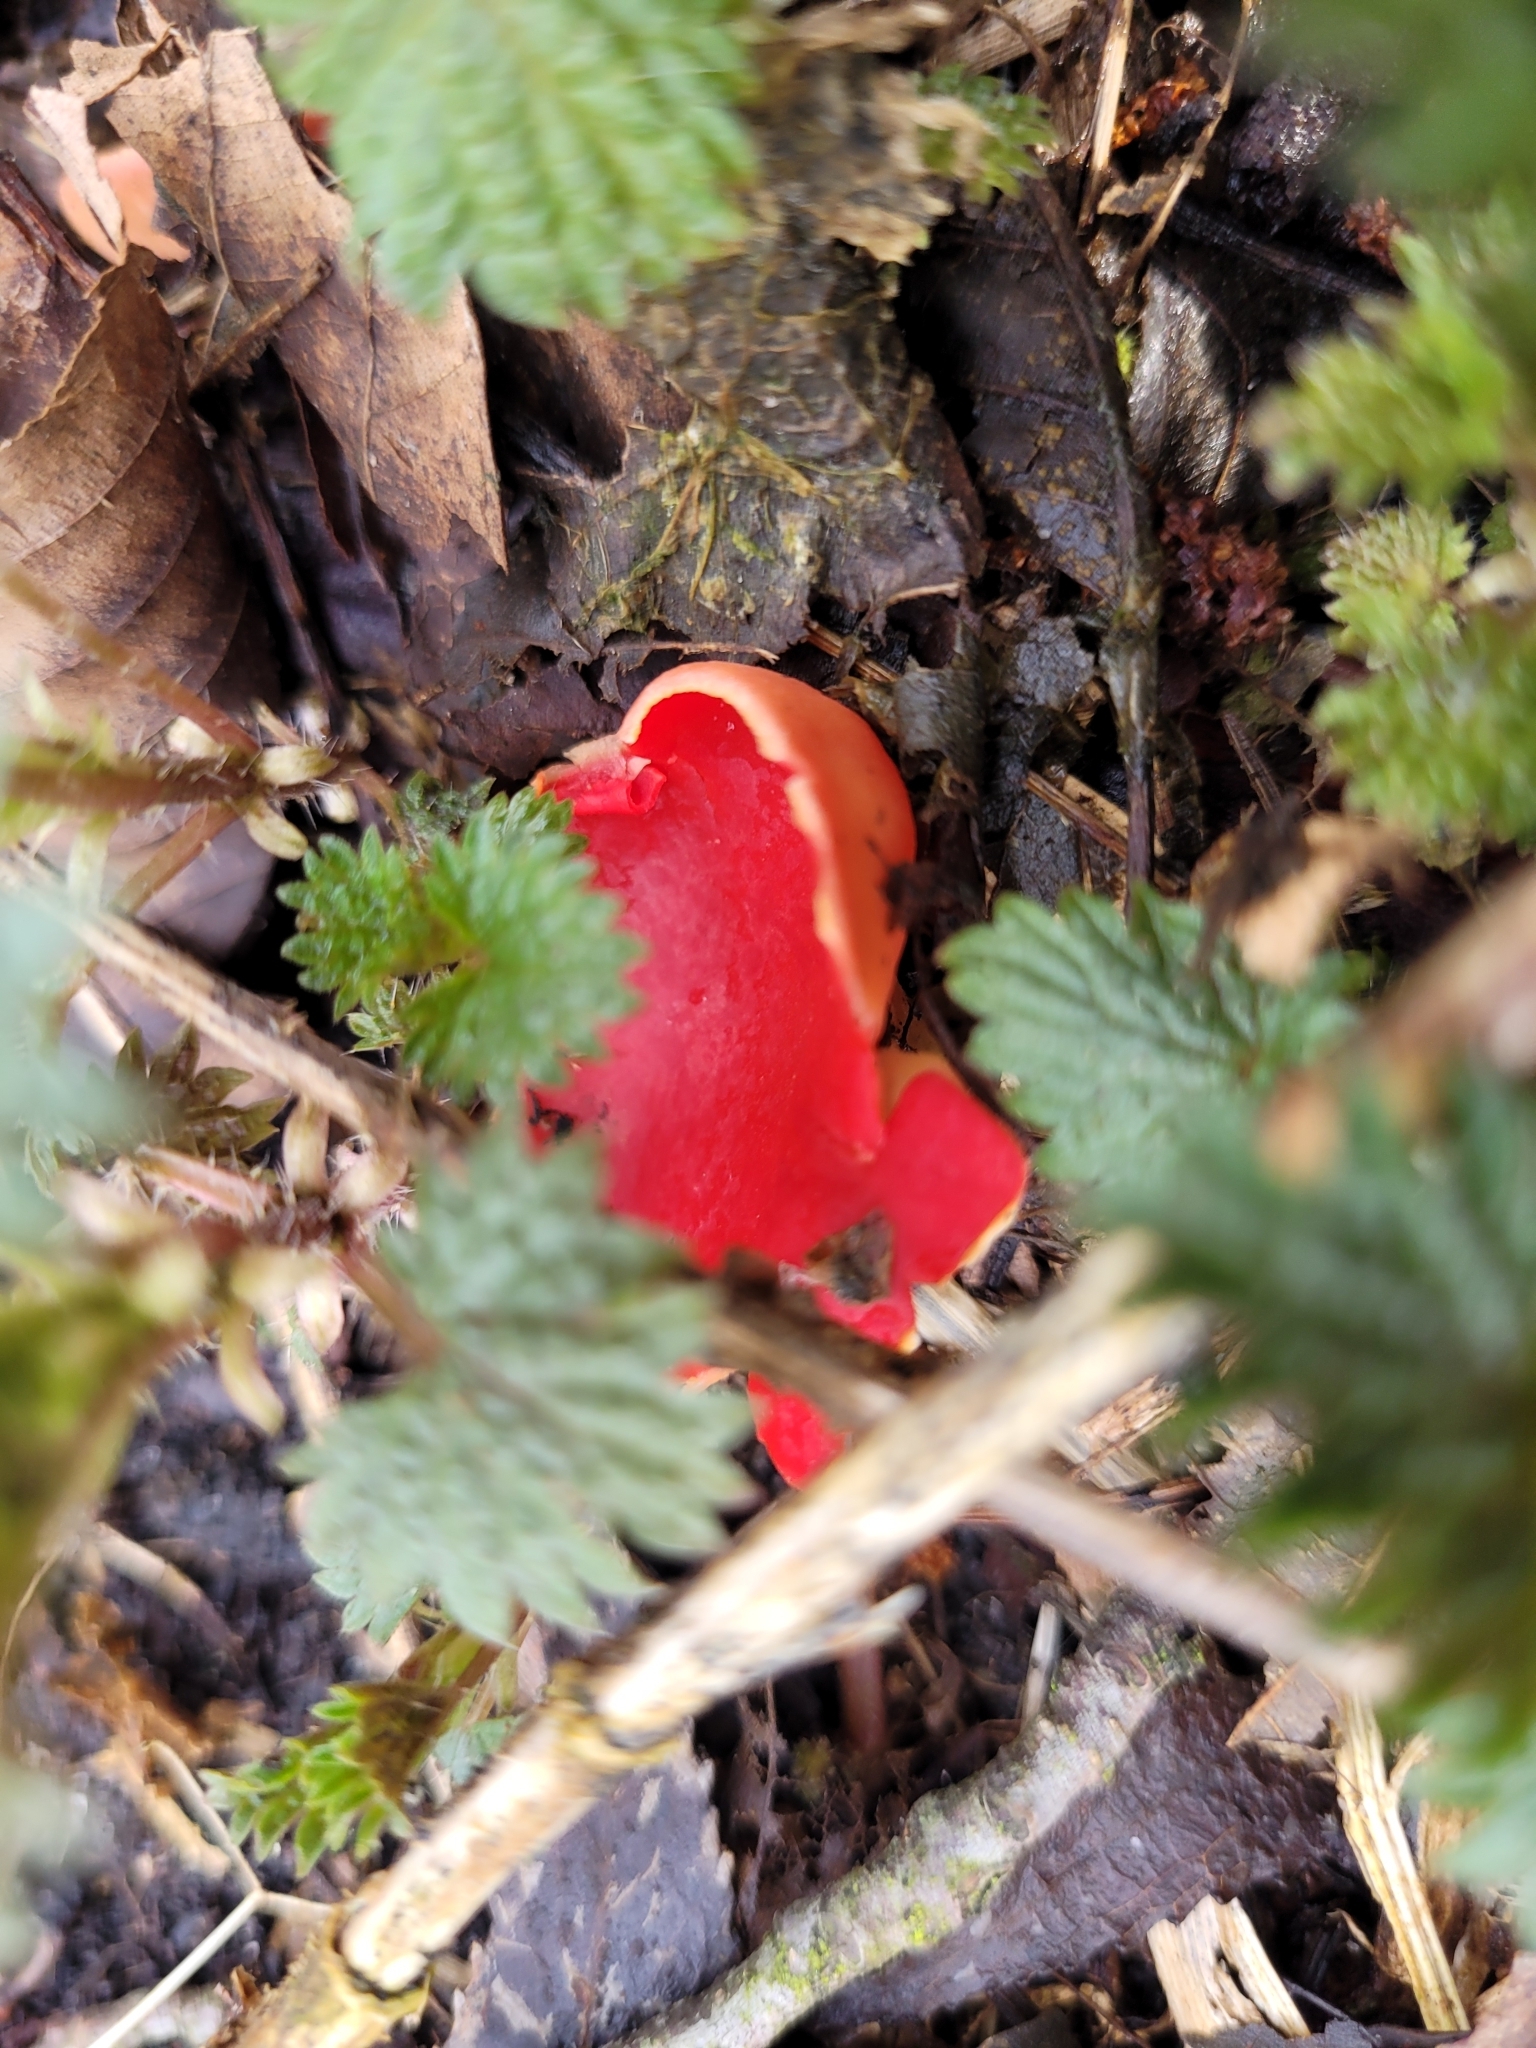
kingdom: Fungi
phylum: Ascomycota
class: Pezizomycetes
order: Pezizales
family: Sarcoscyphaceae
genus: Sarcoscypha
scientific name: Sarcoscypha
